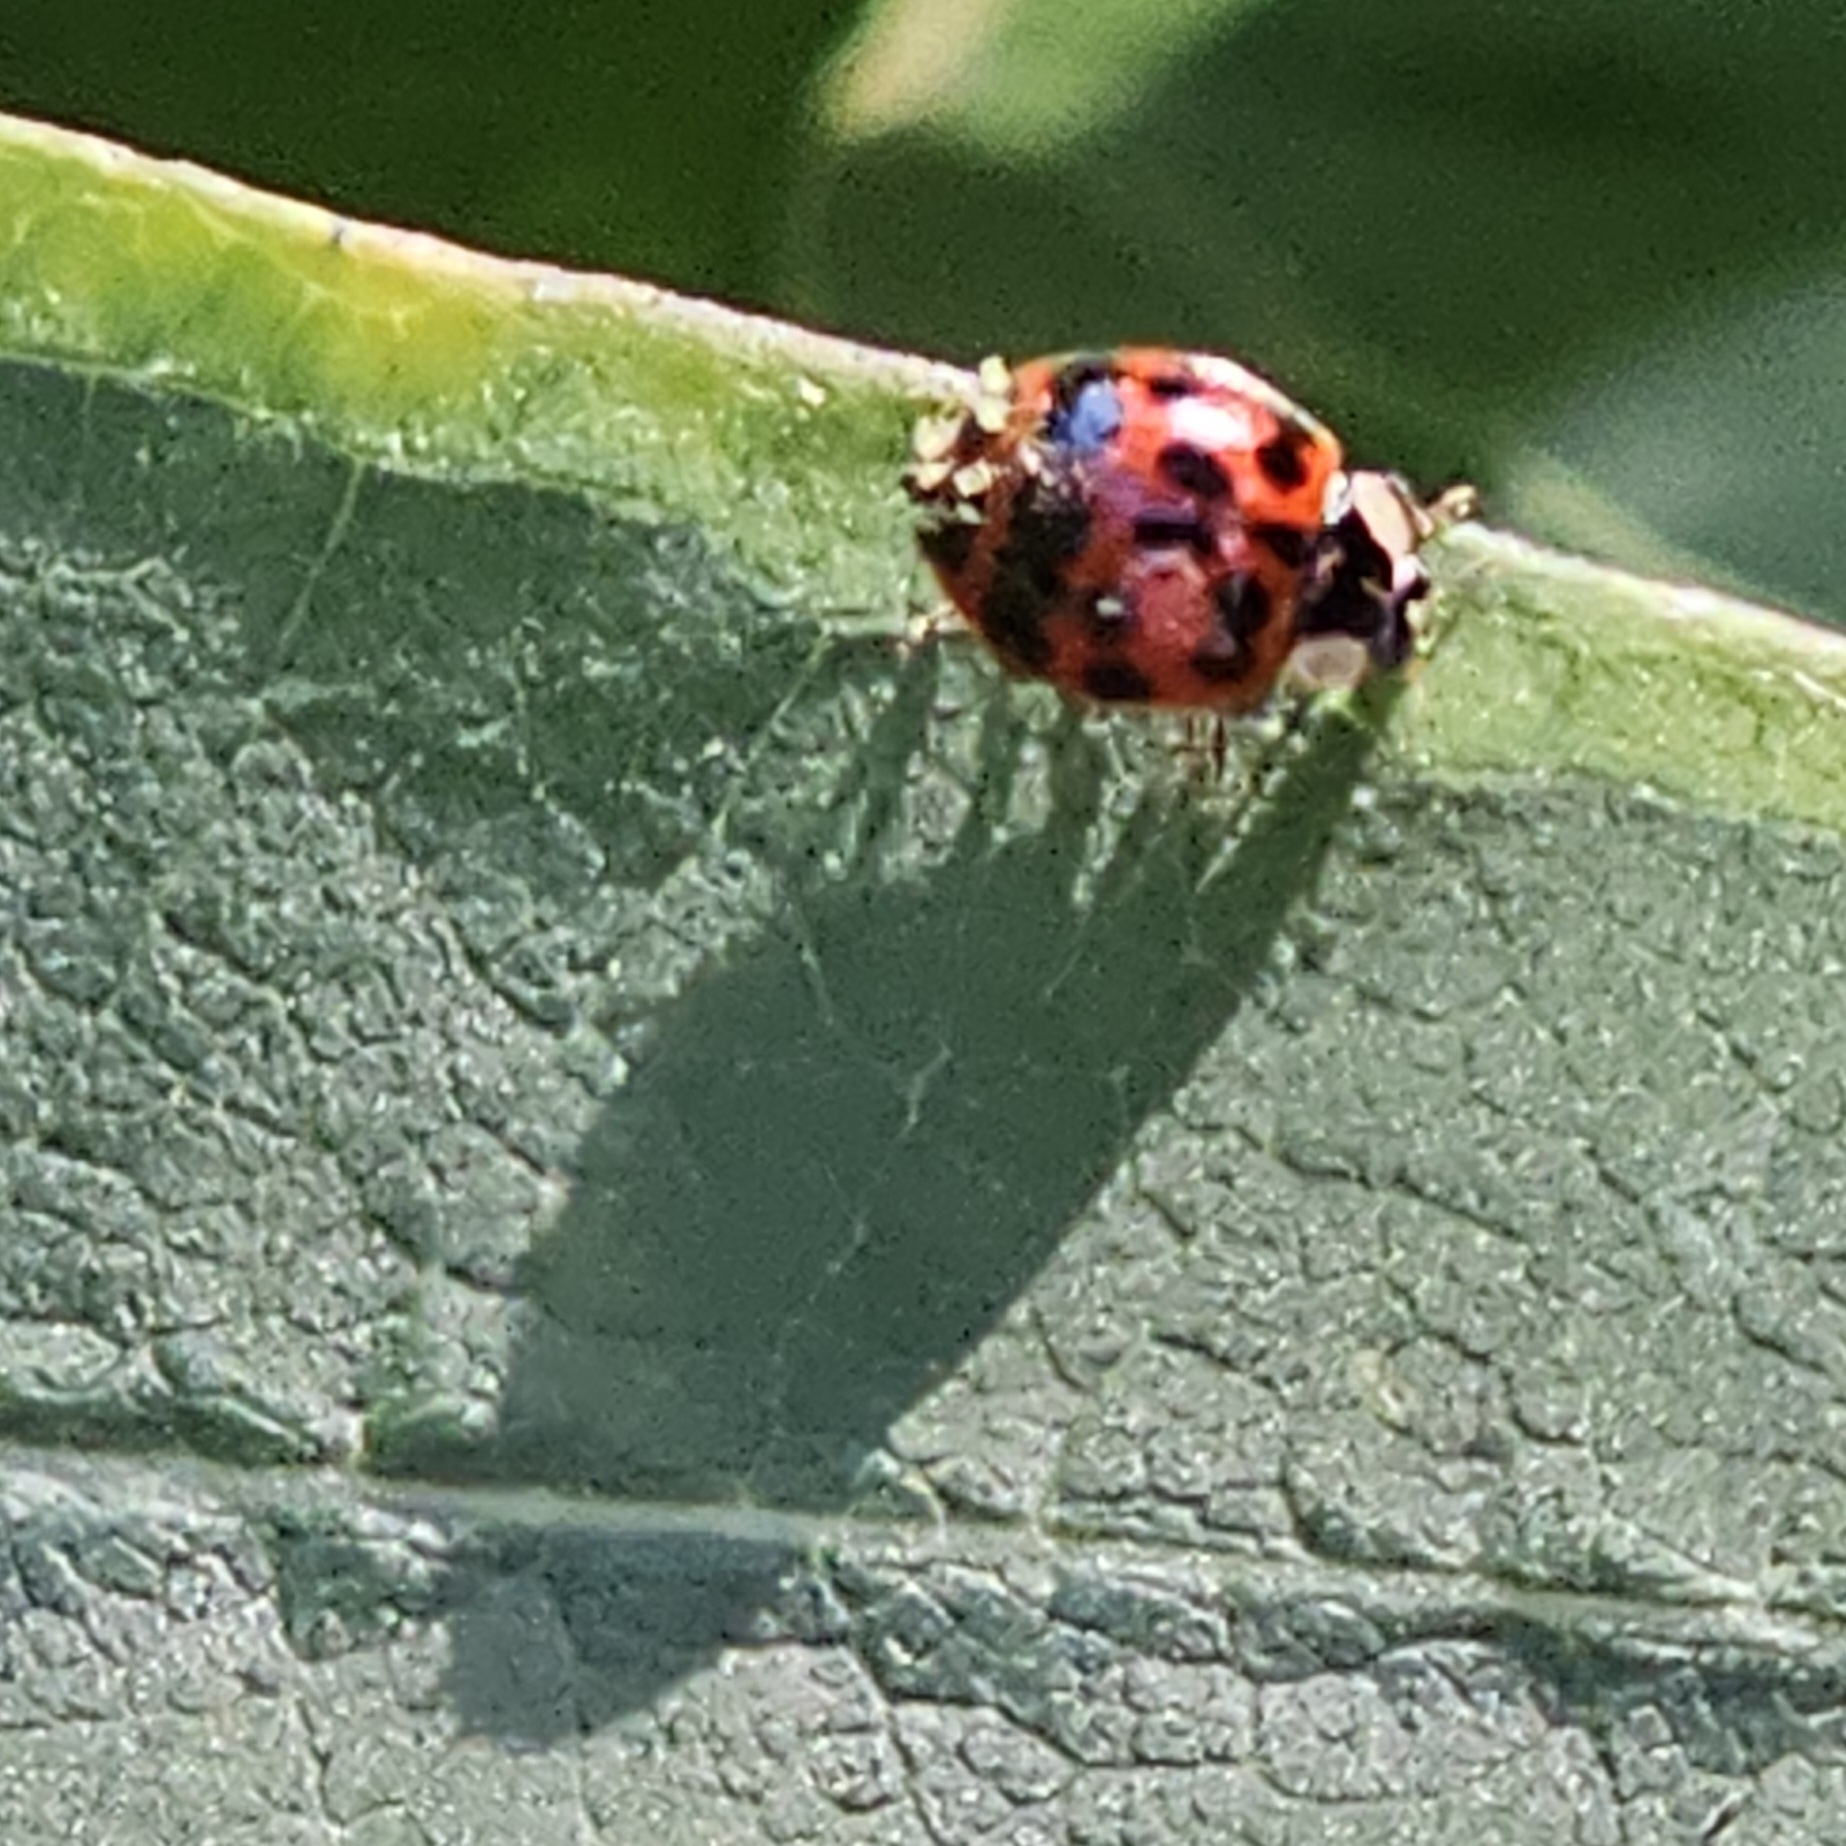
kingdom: Fungi
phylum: Ascomycota
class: Laboulbeniomycetes
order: Laboulbeniales
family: Laboulbeniaceae
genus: Hesperomyces
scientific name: Hesperomyces harmoniae
